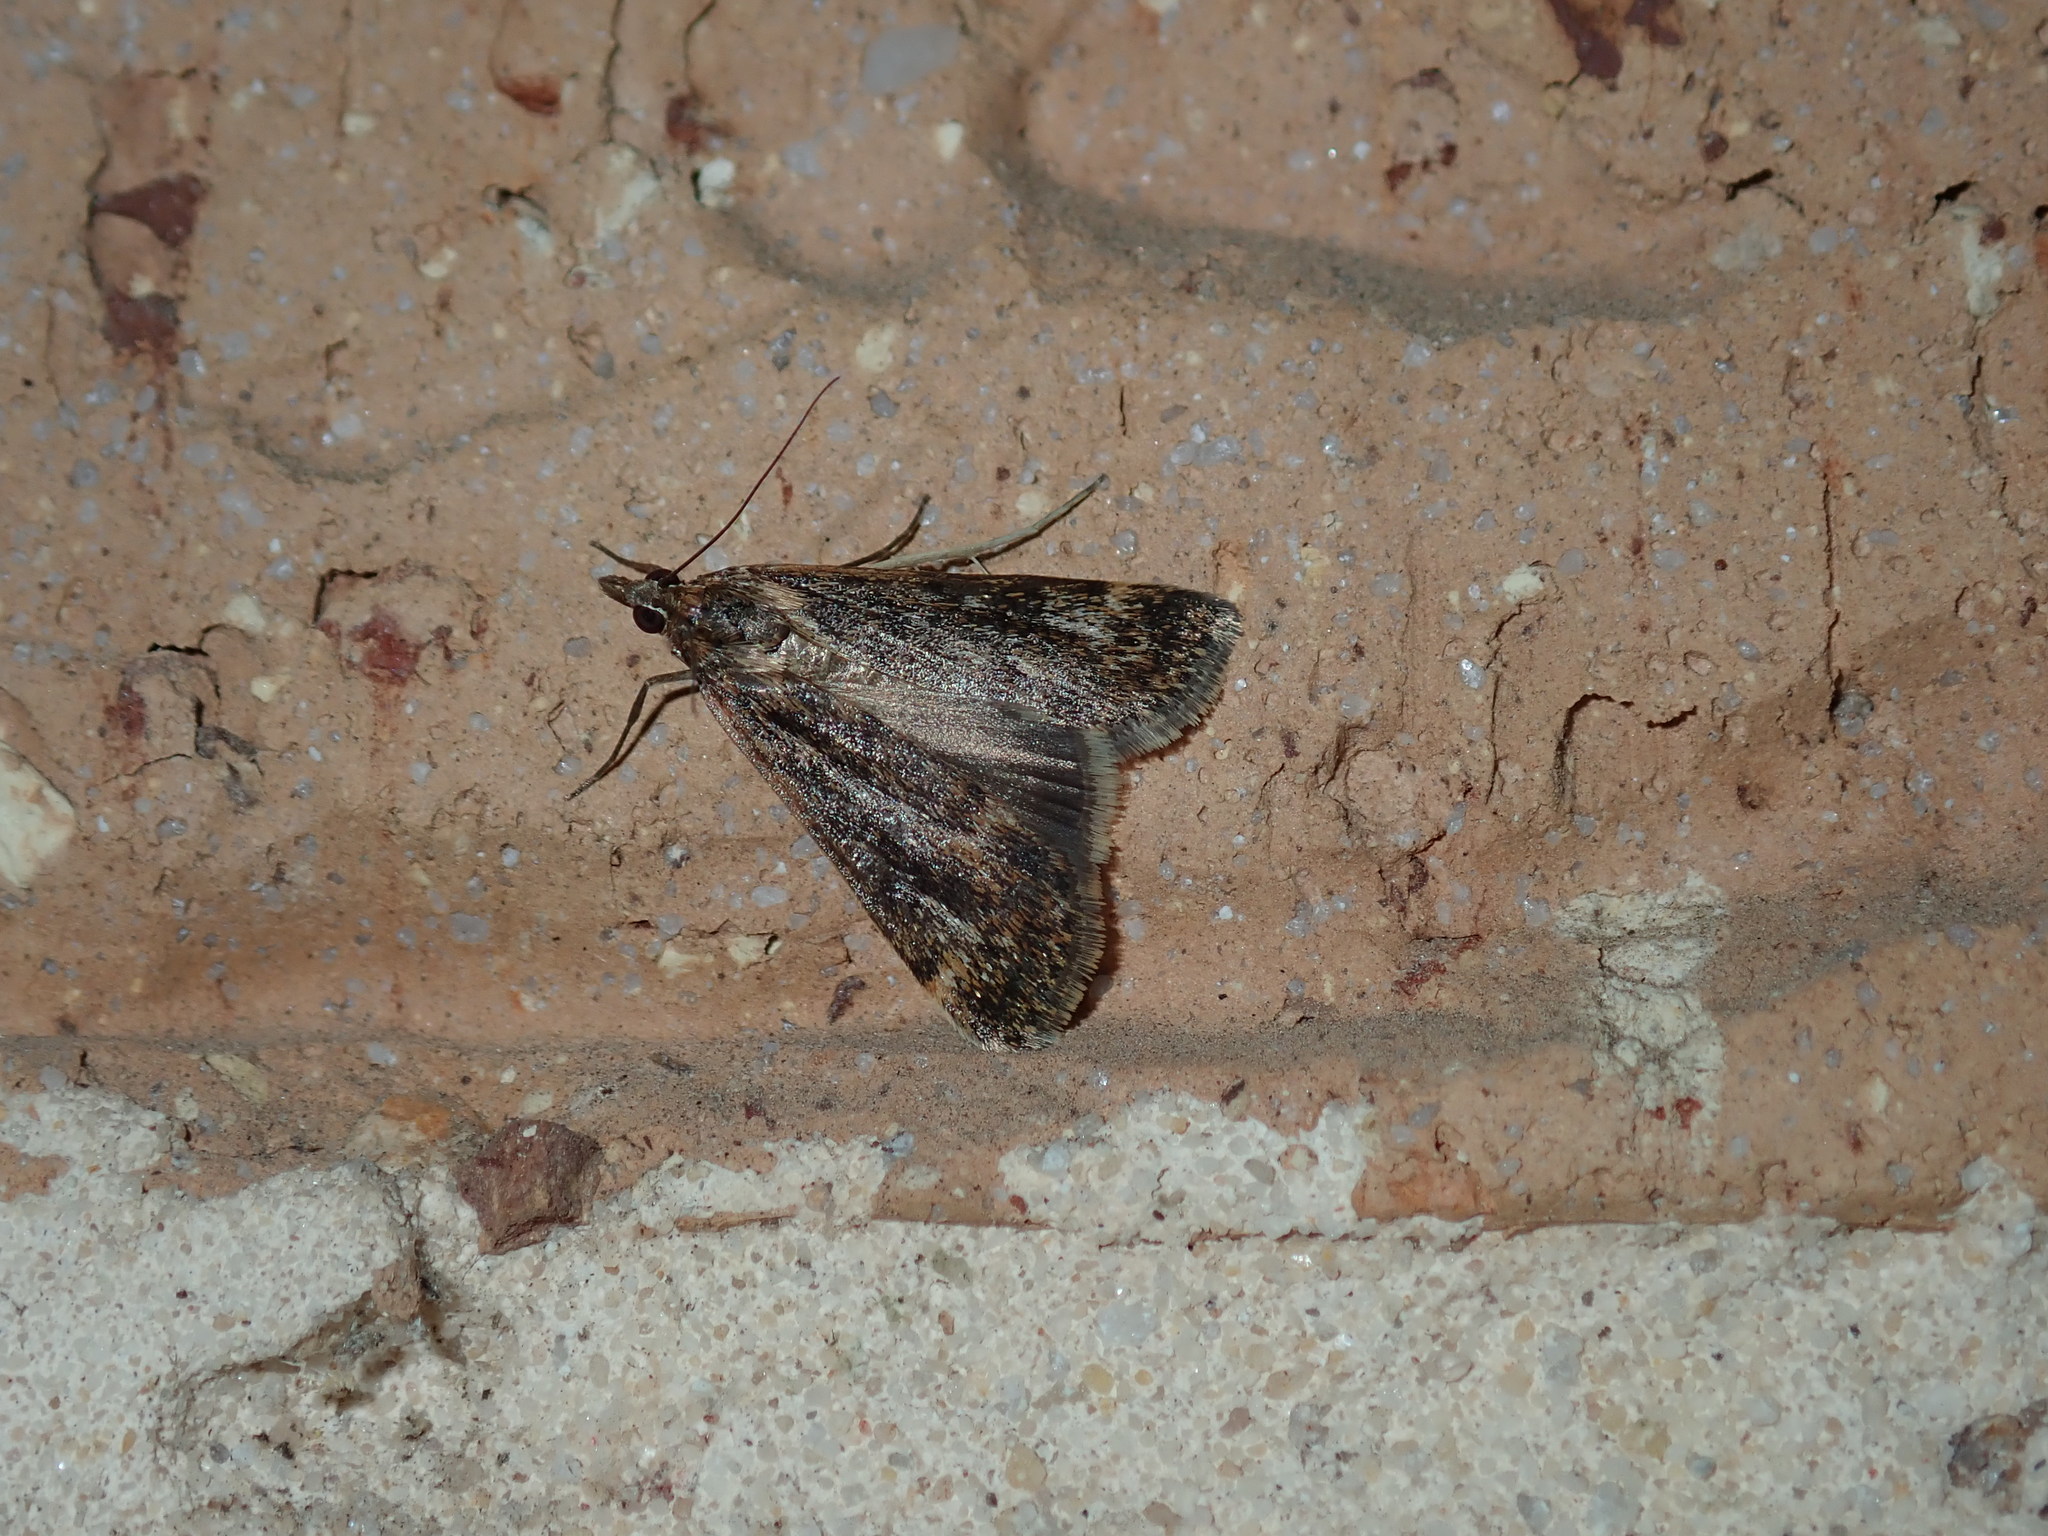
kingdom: Animalia
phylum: Arthropoda
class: Insecta
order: Lepidoptera
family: Crambidae
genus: Achyra
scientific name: Achyra affinitalis
